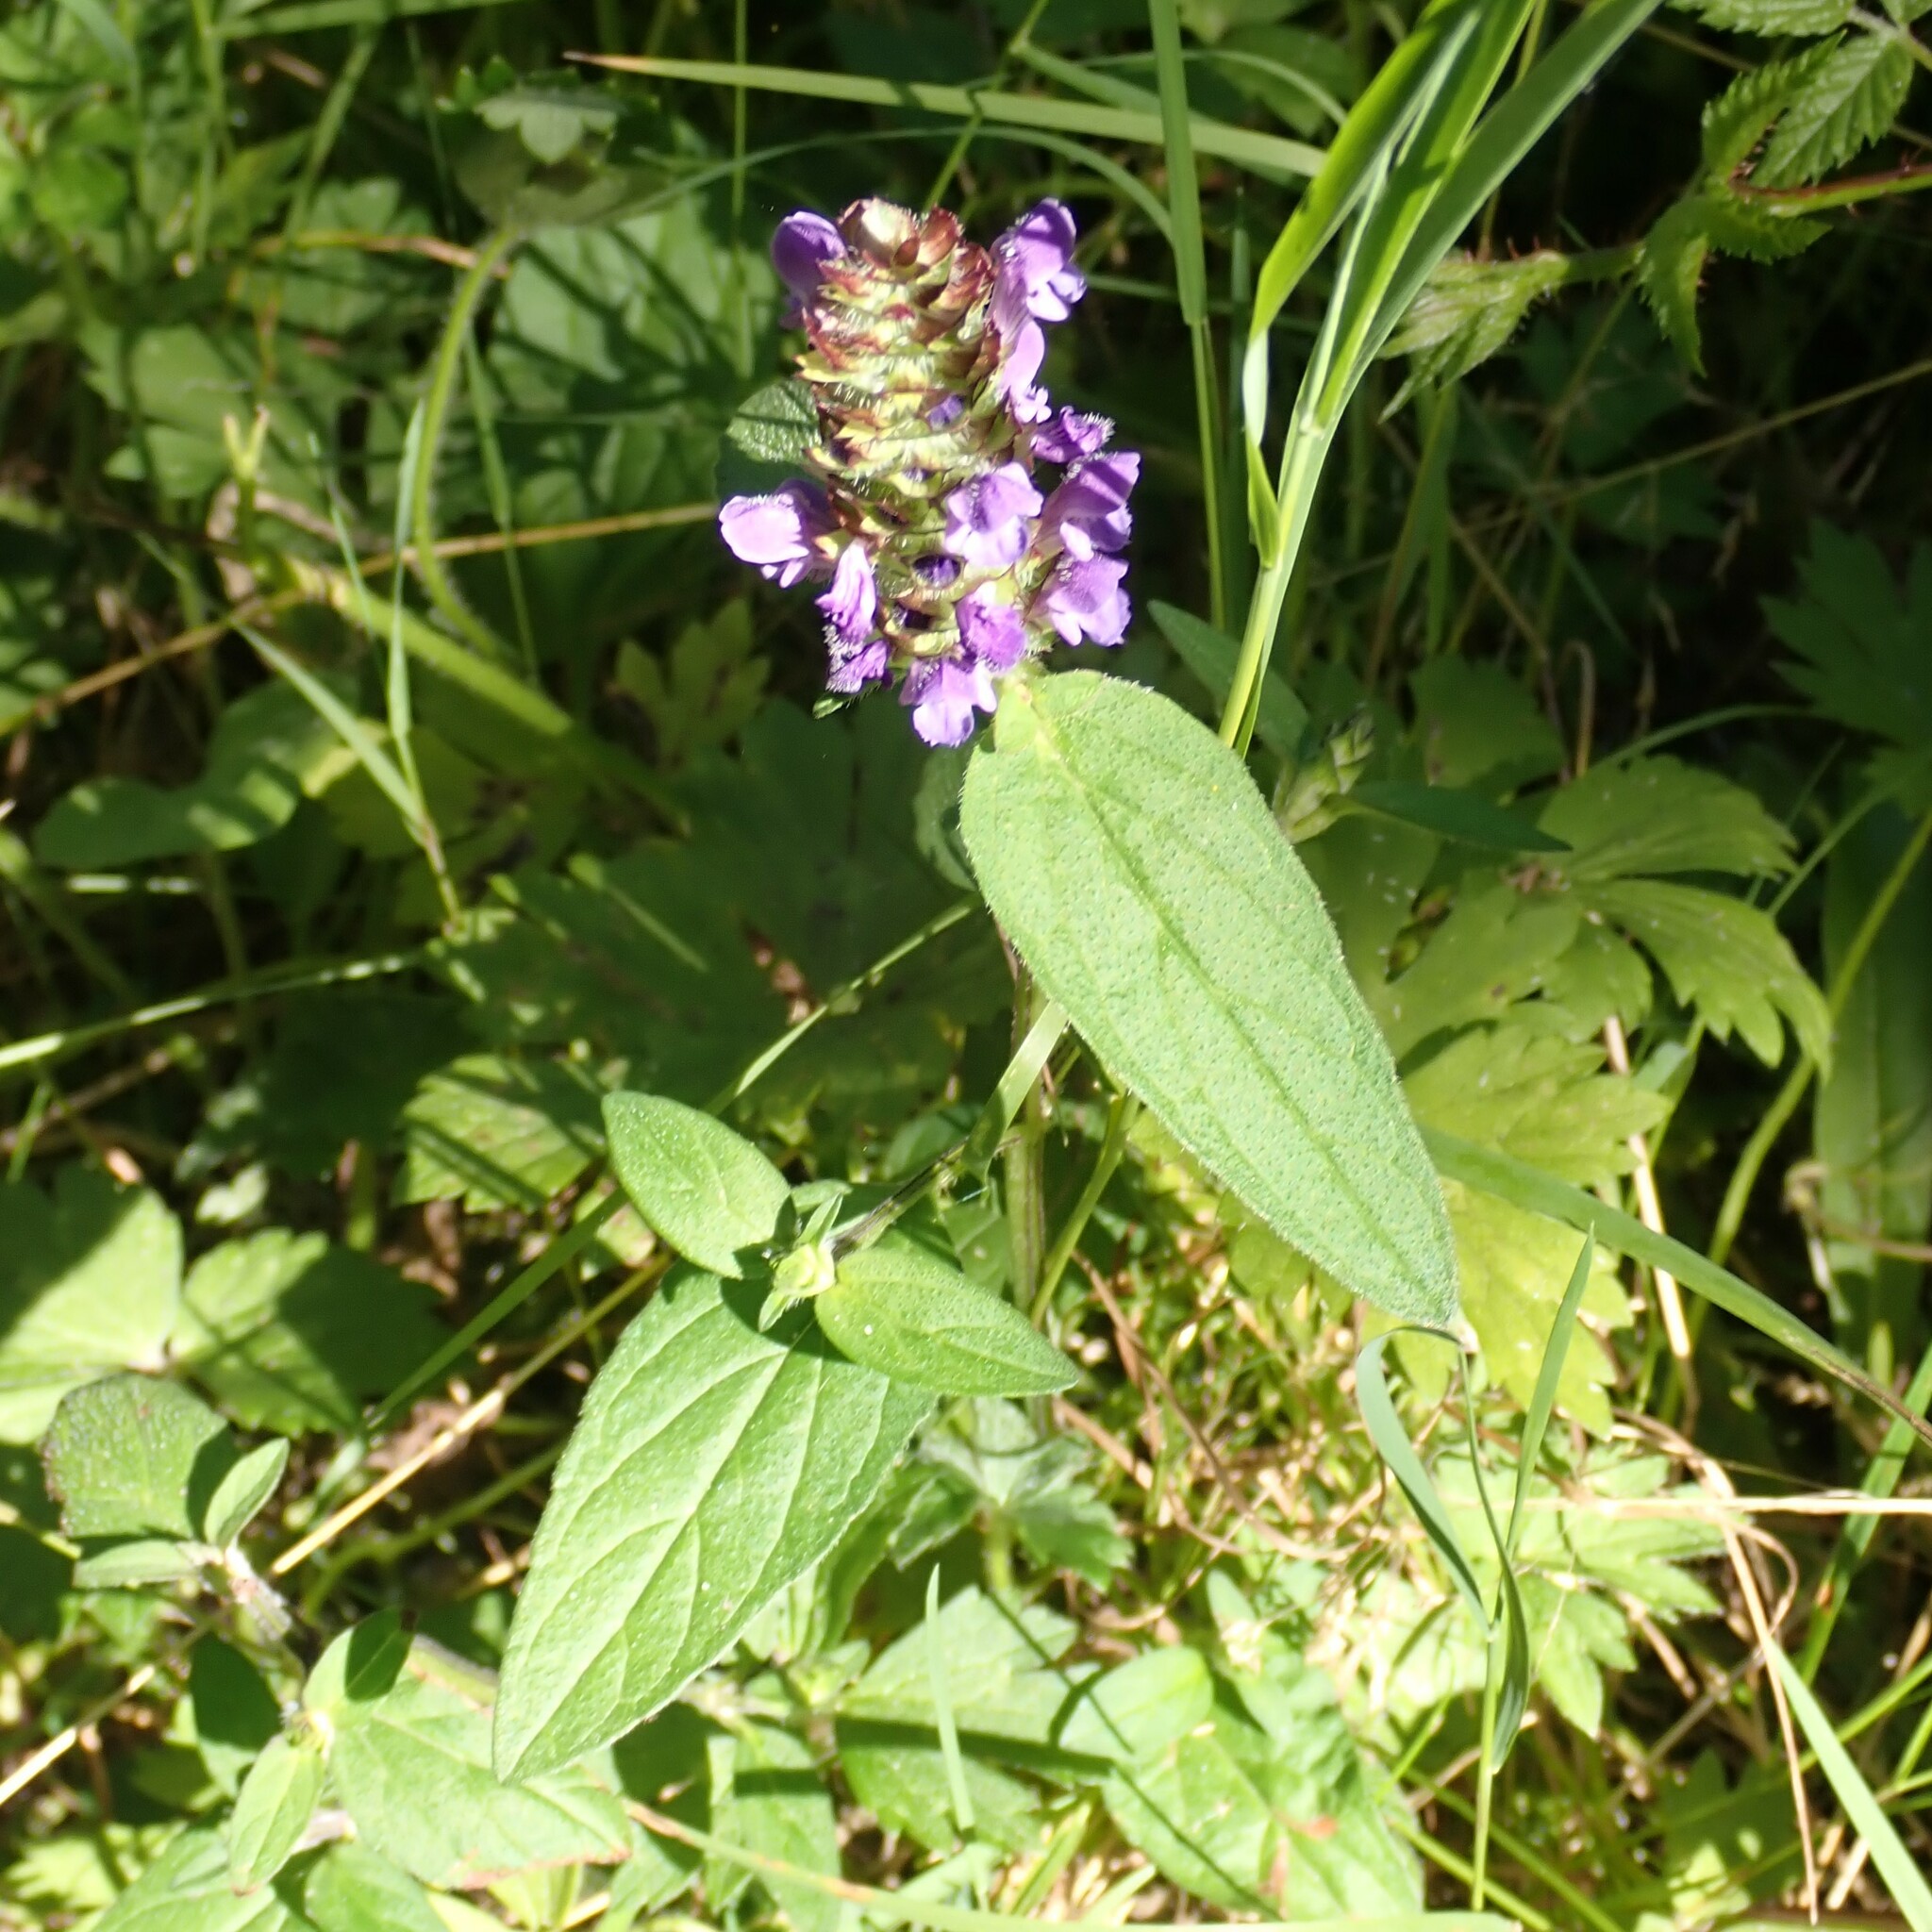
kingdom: Plantae
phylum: Tracheophyta
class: Magnoliopsida
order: Lamiales
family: Lamiaceae
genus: Prunella
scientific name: Prunella vulgaris
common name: Heal-all
